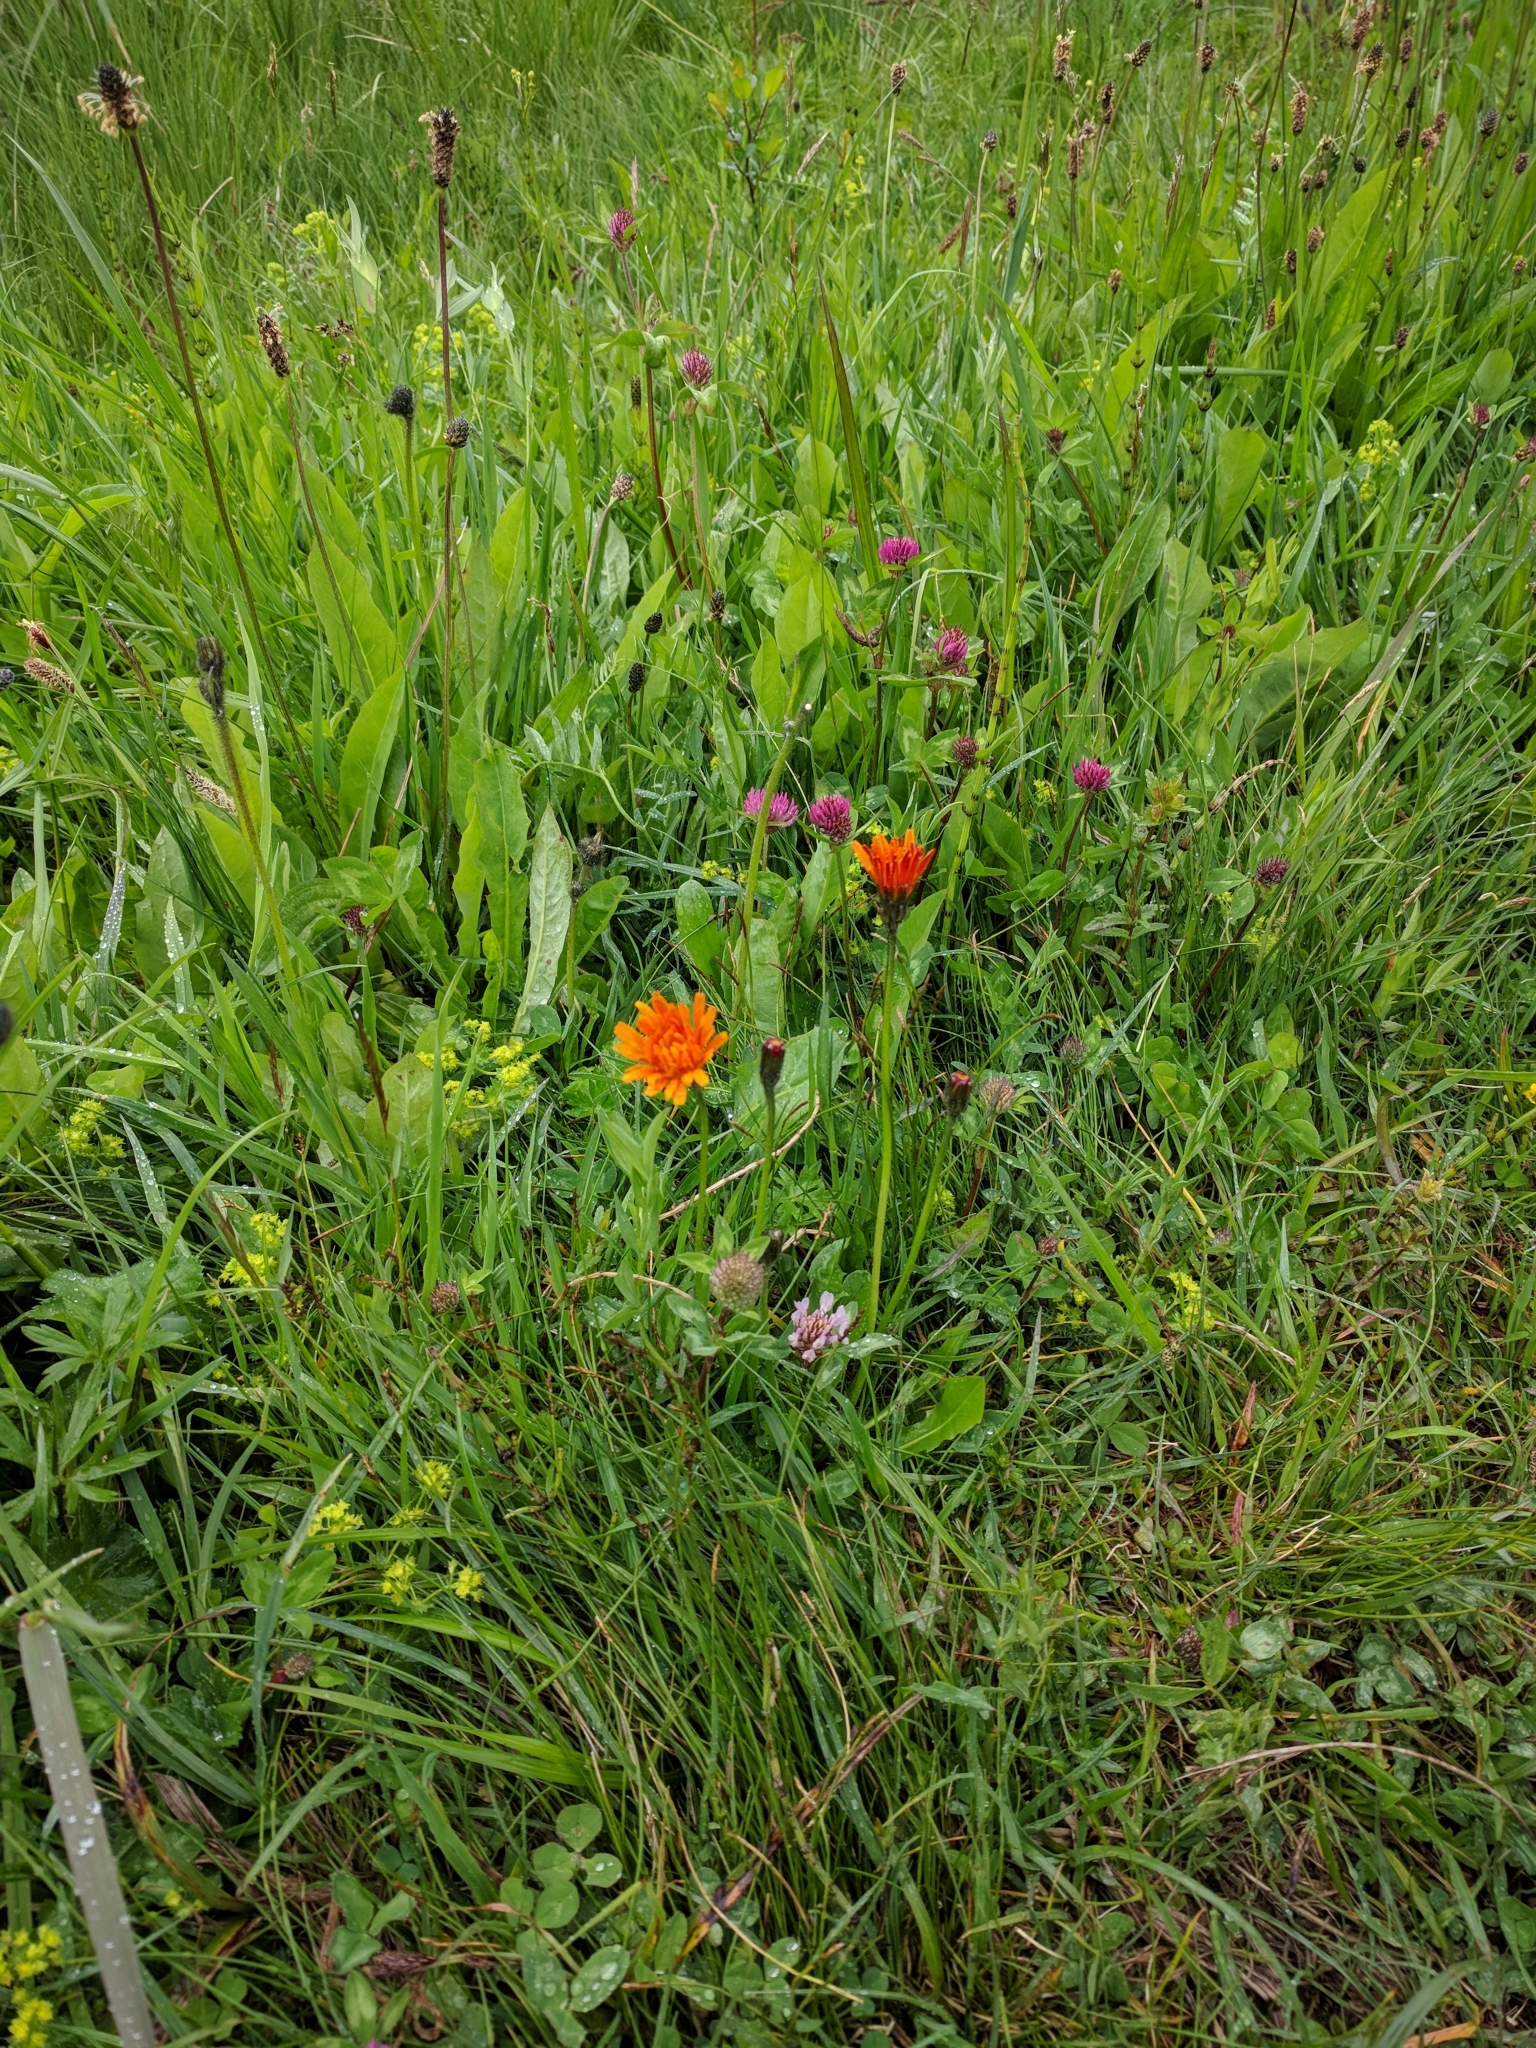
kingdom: Plantae
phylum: Tracheophyta
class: Magnoliopsida
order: Asterales
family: Asteraceae
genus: Crepis
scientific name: Crepis aurea
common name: Golden hawk's-beard
